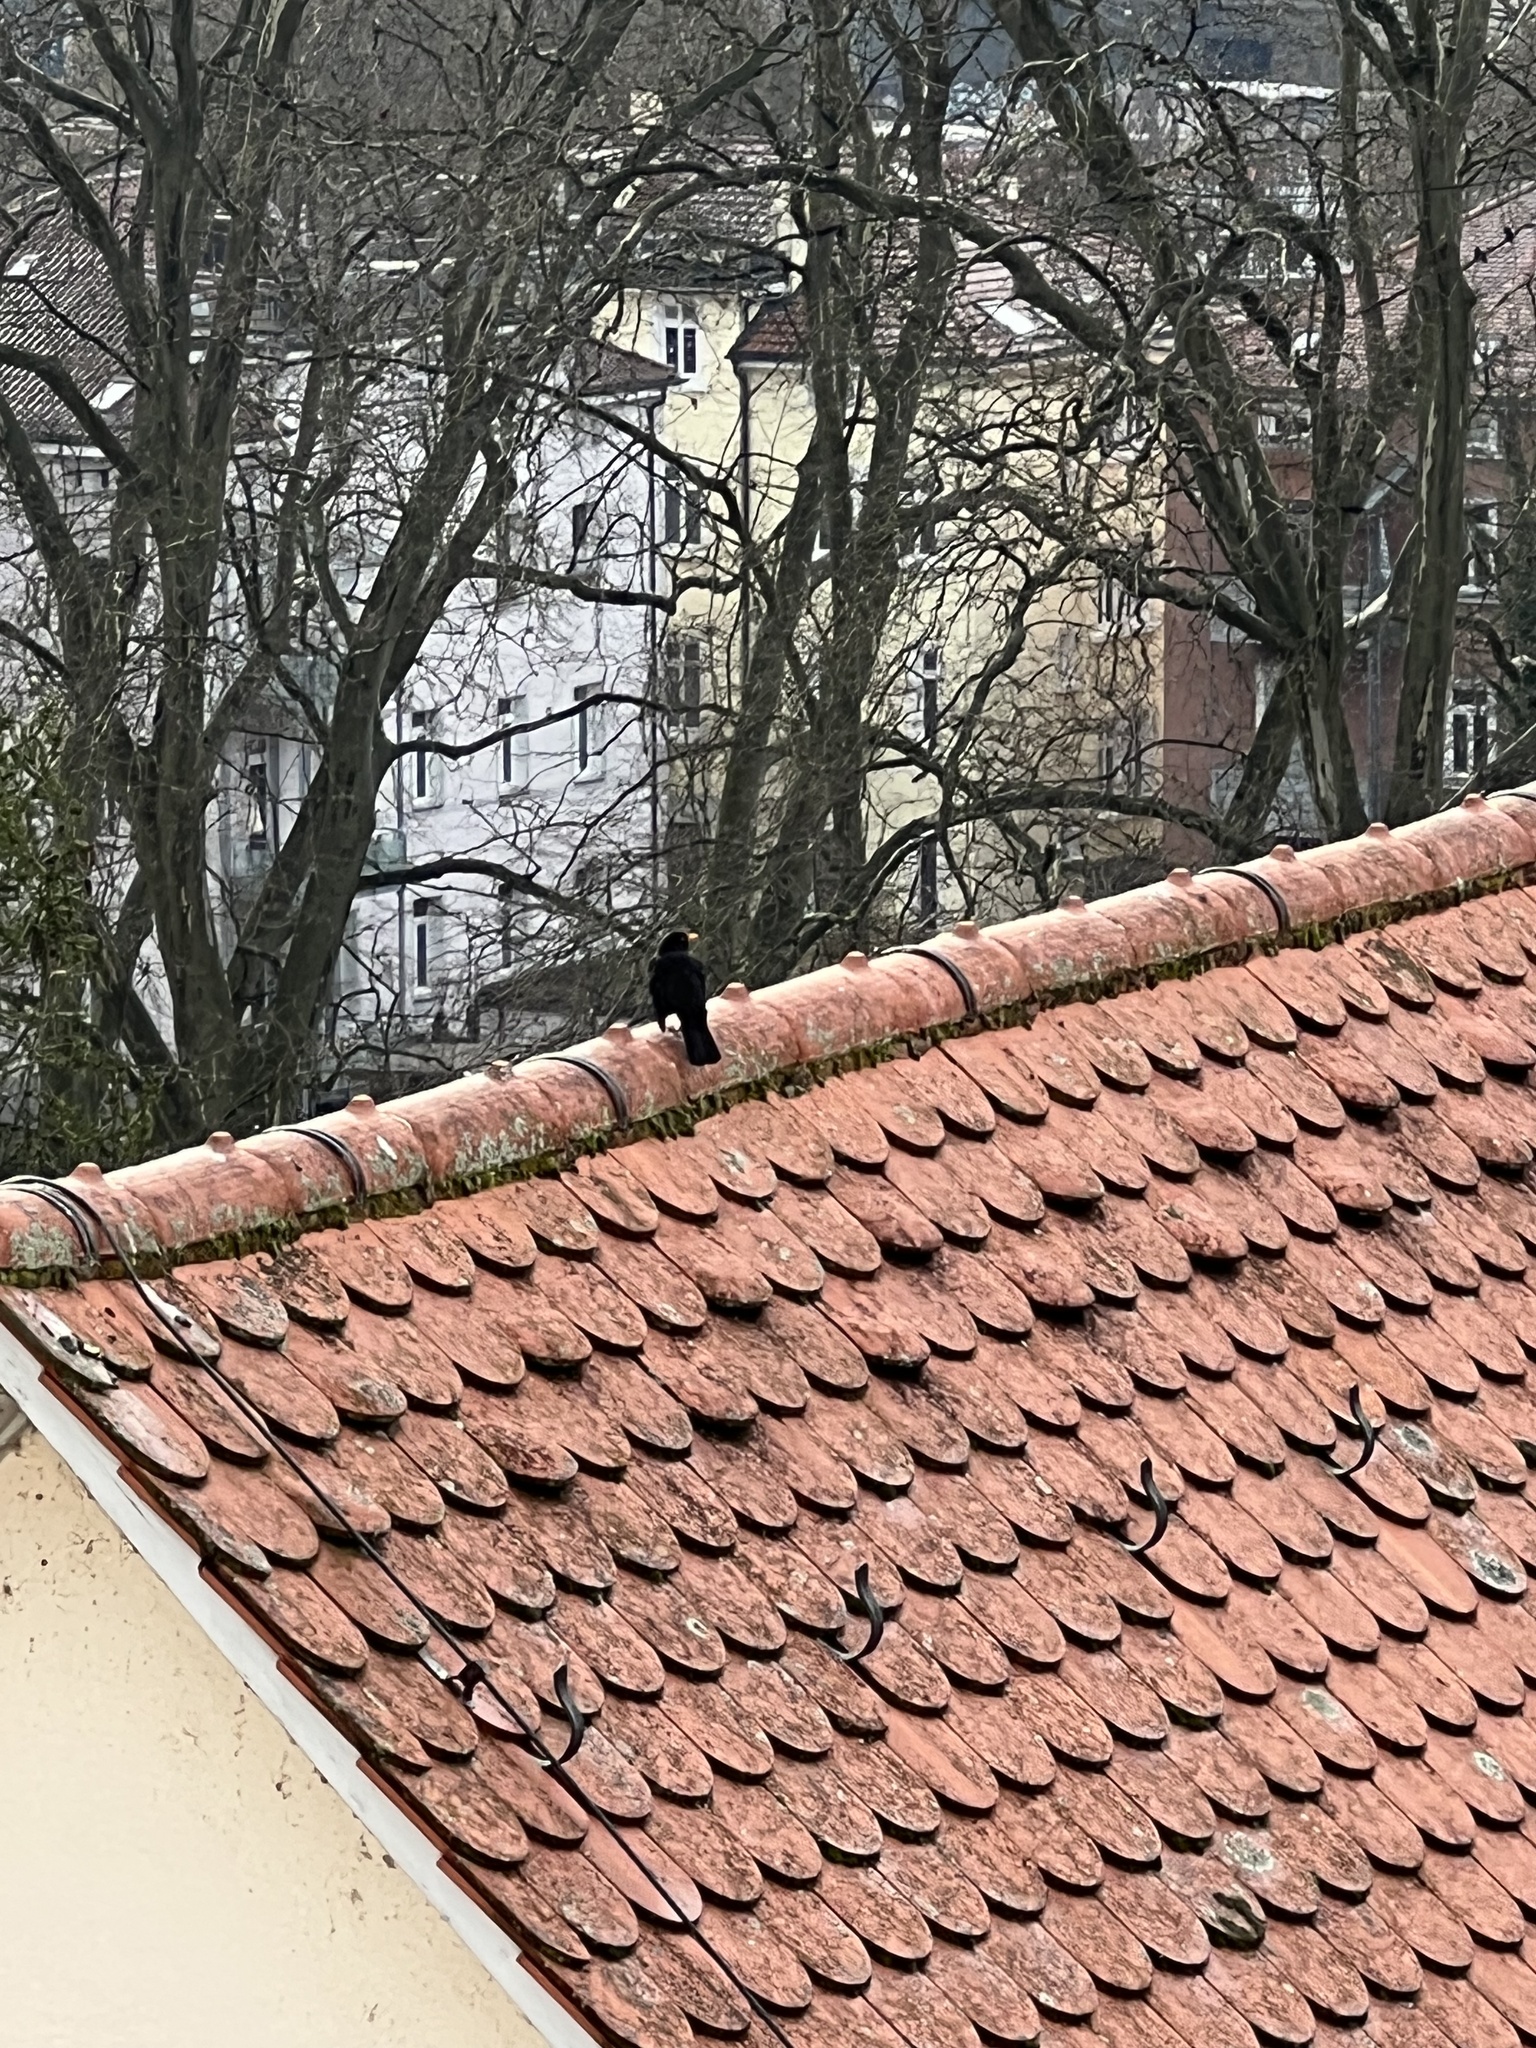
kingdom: Animalia
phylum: Chordata
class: Aves
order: Passeriformes
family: Turdidae
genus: Turdus
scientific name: Turdus merula
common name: Common blackbird
